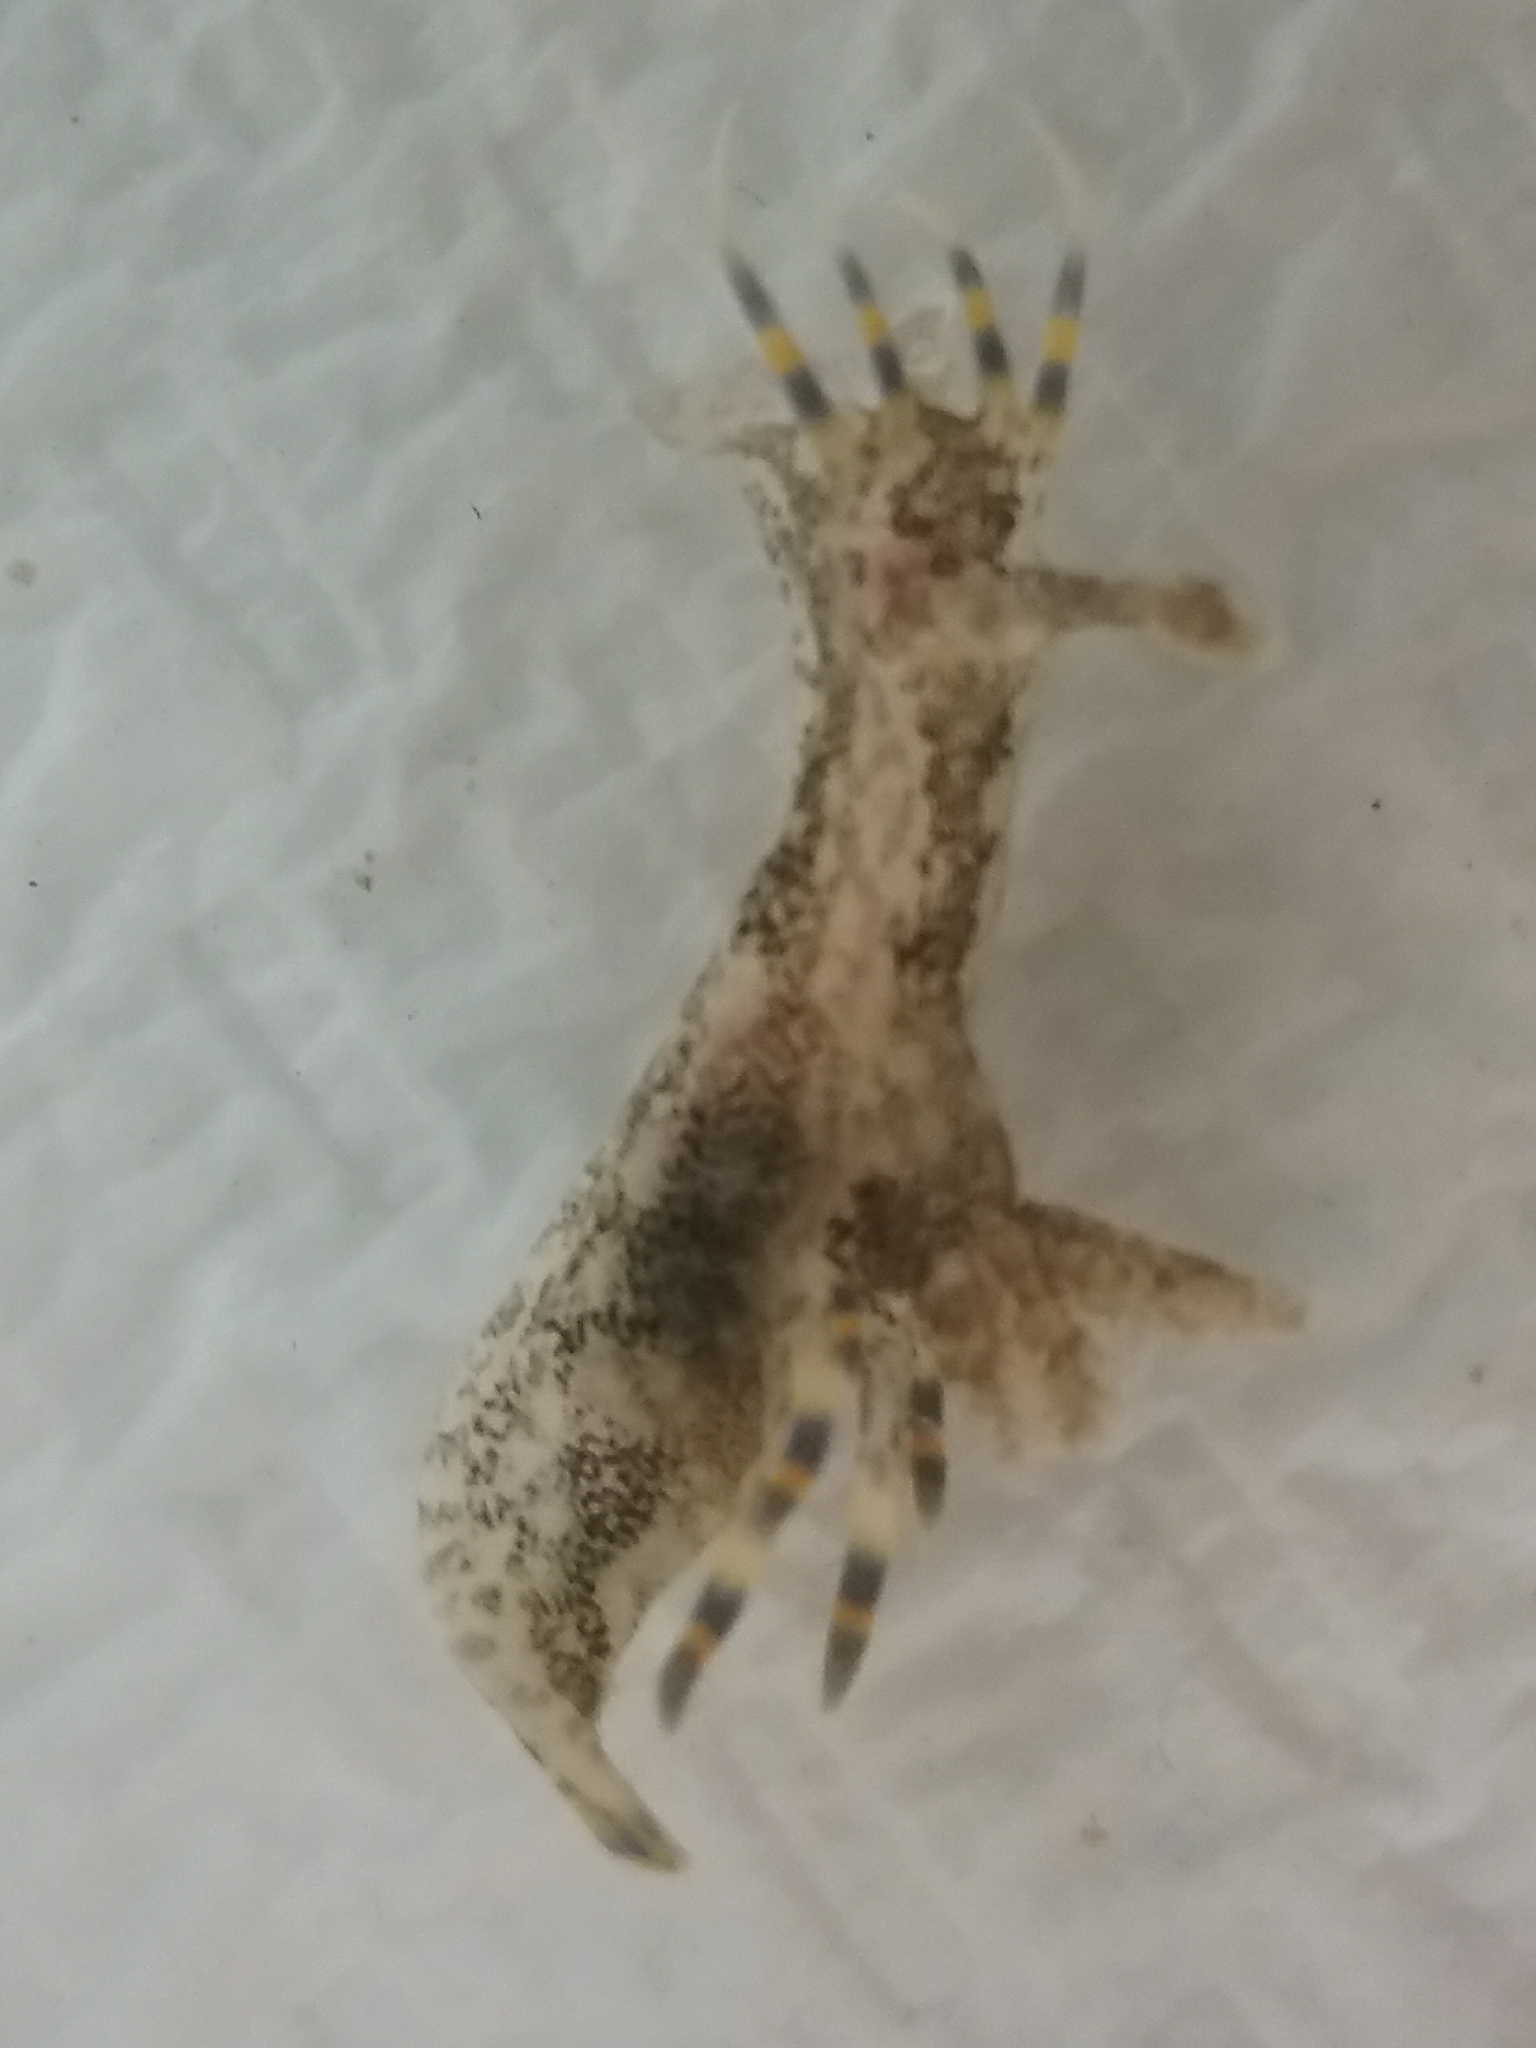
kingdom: Animalia
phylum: Mollusca
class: Gastropoda
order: Nudibranchia
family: Polyceridae
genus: Polycera
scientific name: Polycera hummi
